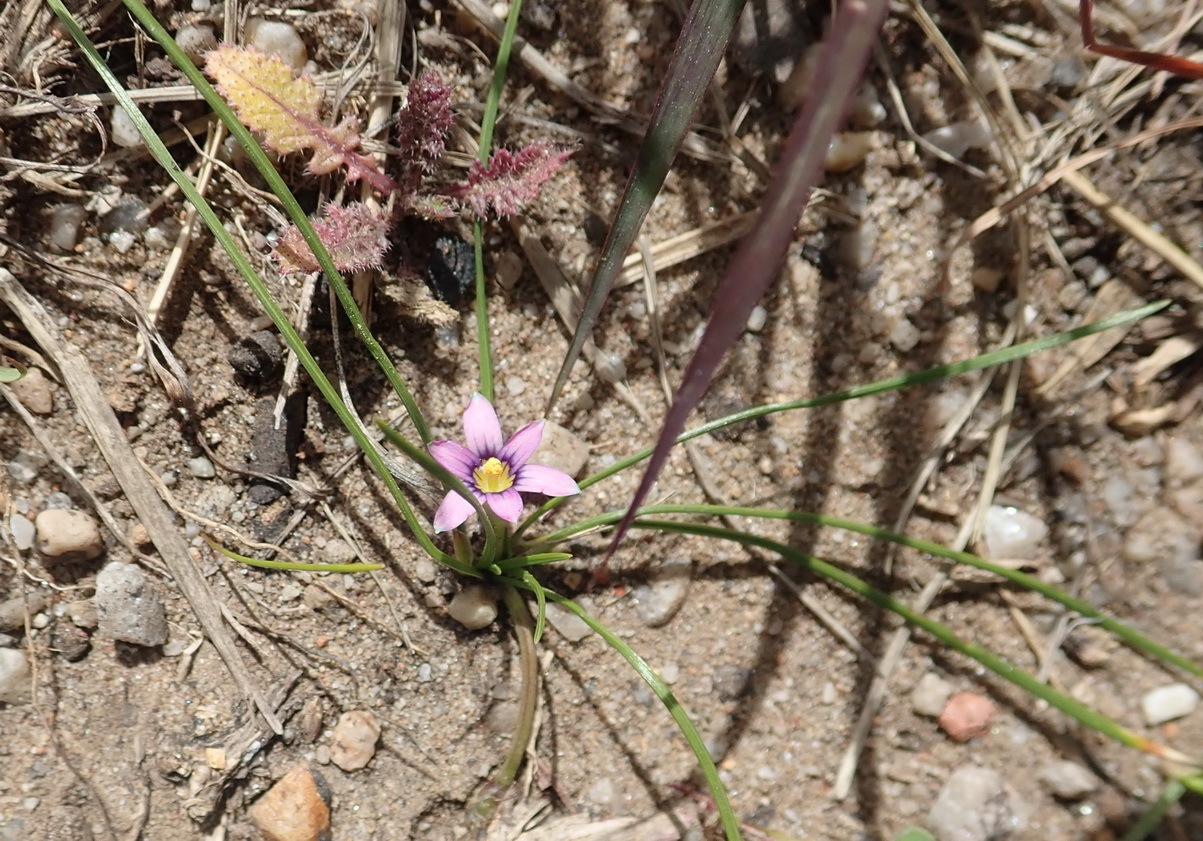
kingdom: Plantae
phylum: Tracheophyta
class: Liliopsida
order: Asparagales
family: Iridaceae
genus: Romulea
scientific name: Romulea minutiflora
